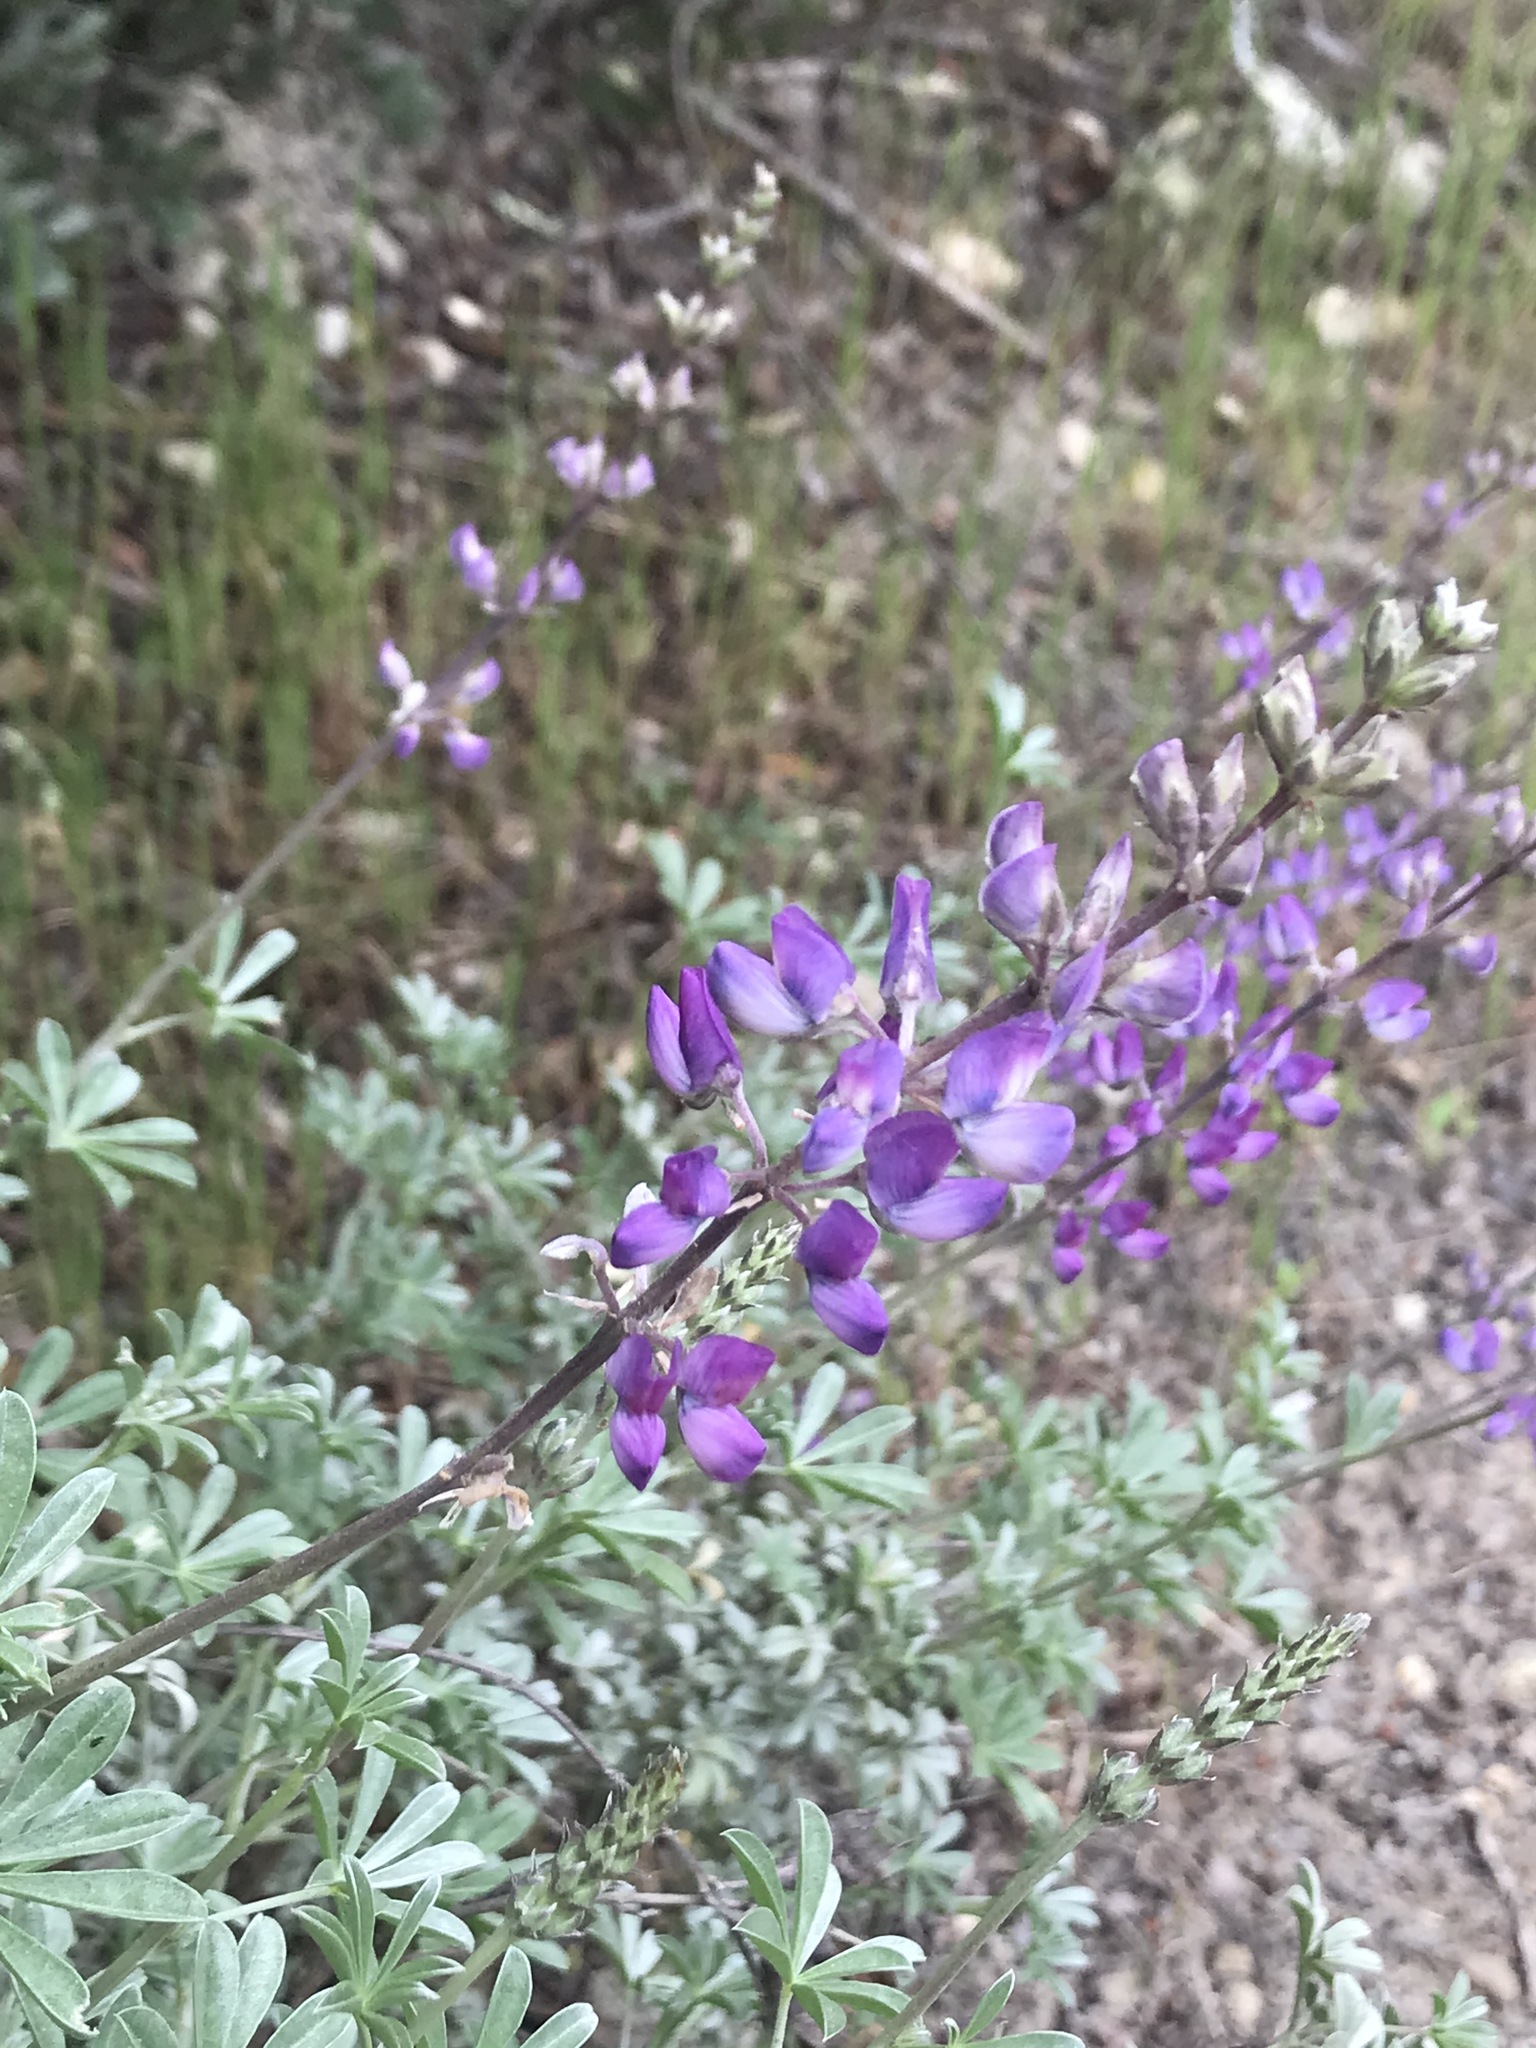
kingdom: Plantae
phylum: Tracheophyta
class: Magnoliopsida
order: Fabales
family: Fabaceae
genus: Lupinus
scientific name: Lupinus albifrons
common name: Foothill lupine
